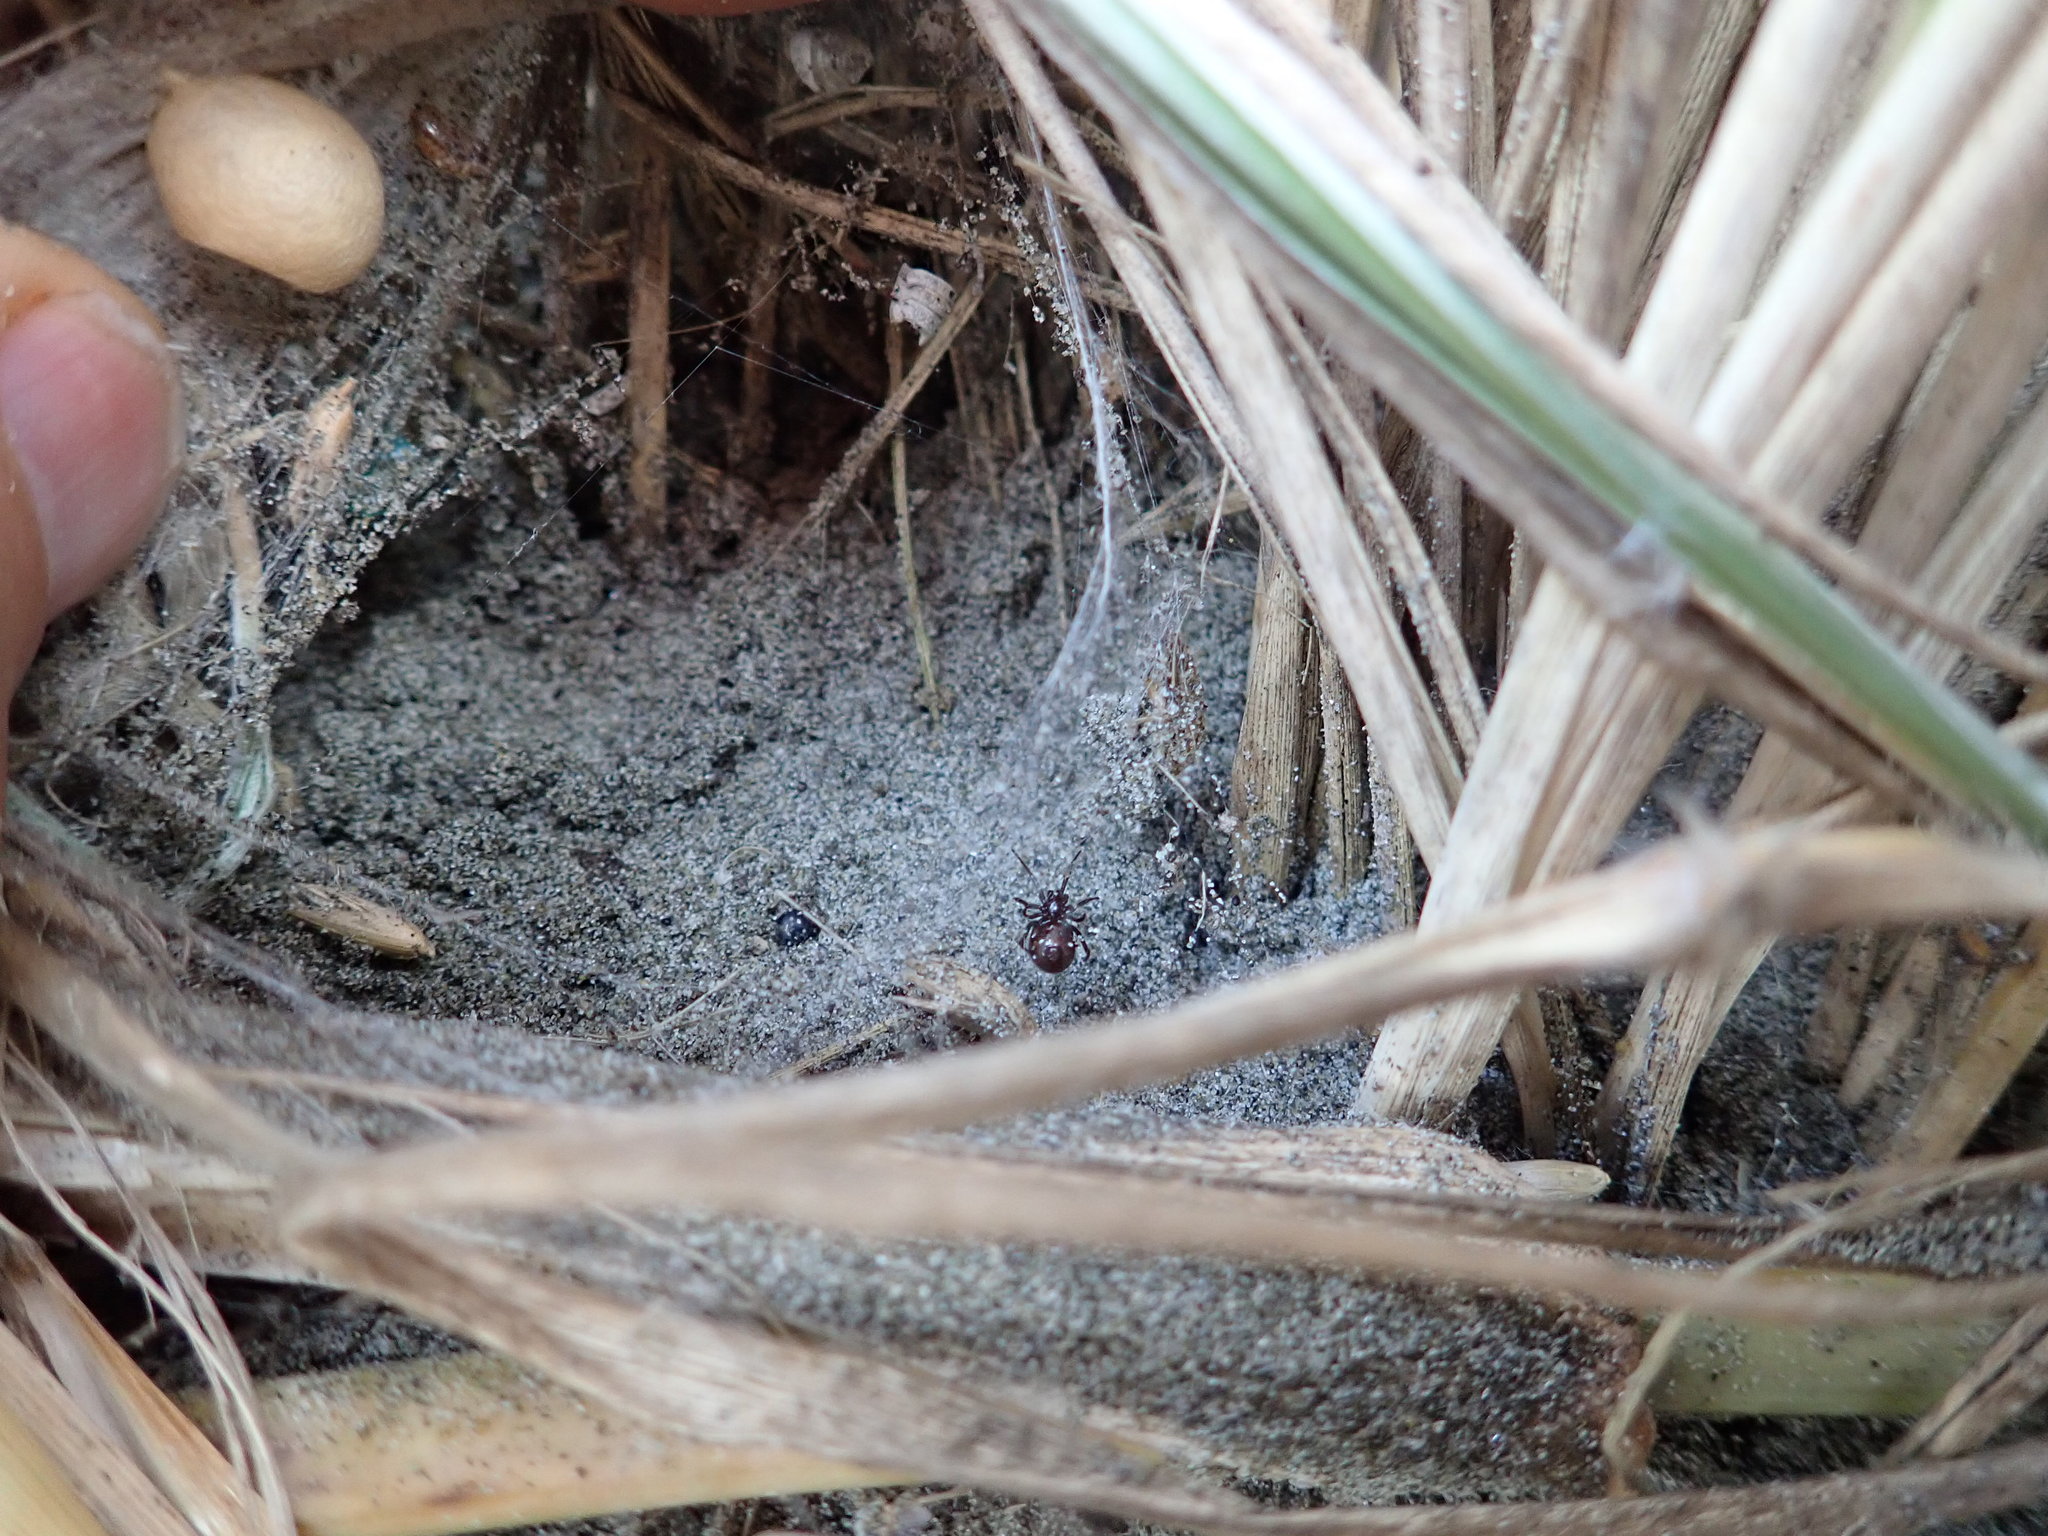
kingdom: Animalia
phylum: Arthropoda
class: Arachnida
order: Araneae
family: Theridiidae
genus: Latrodectus
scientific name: Latrodectus katipo
